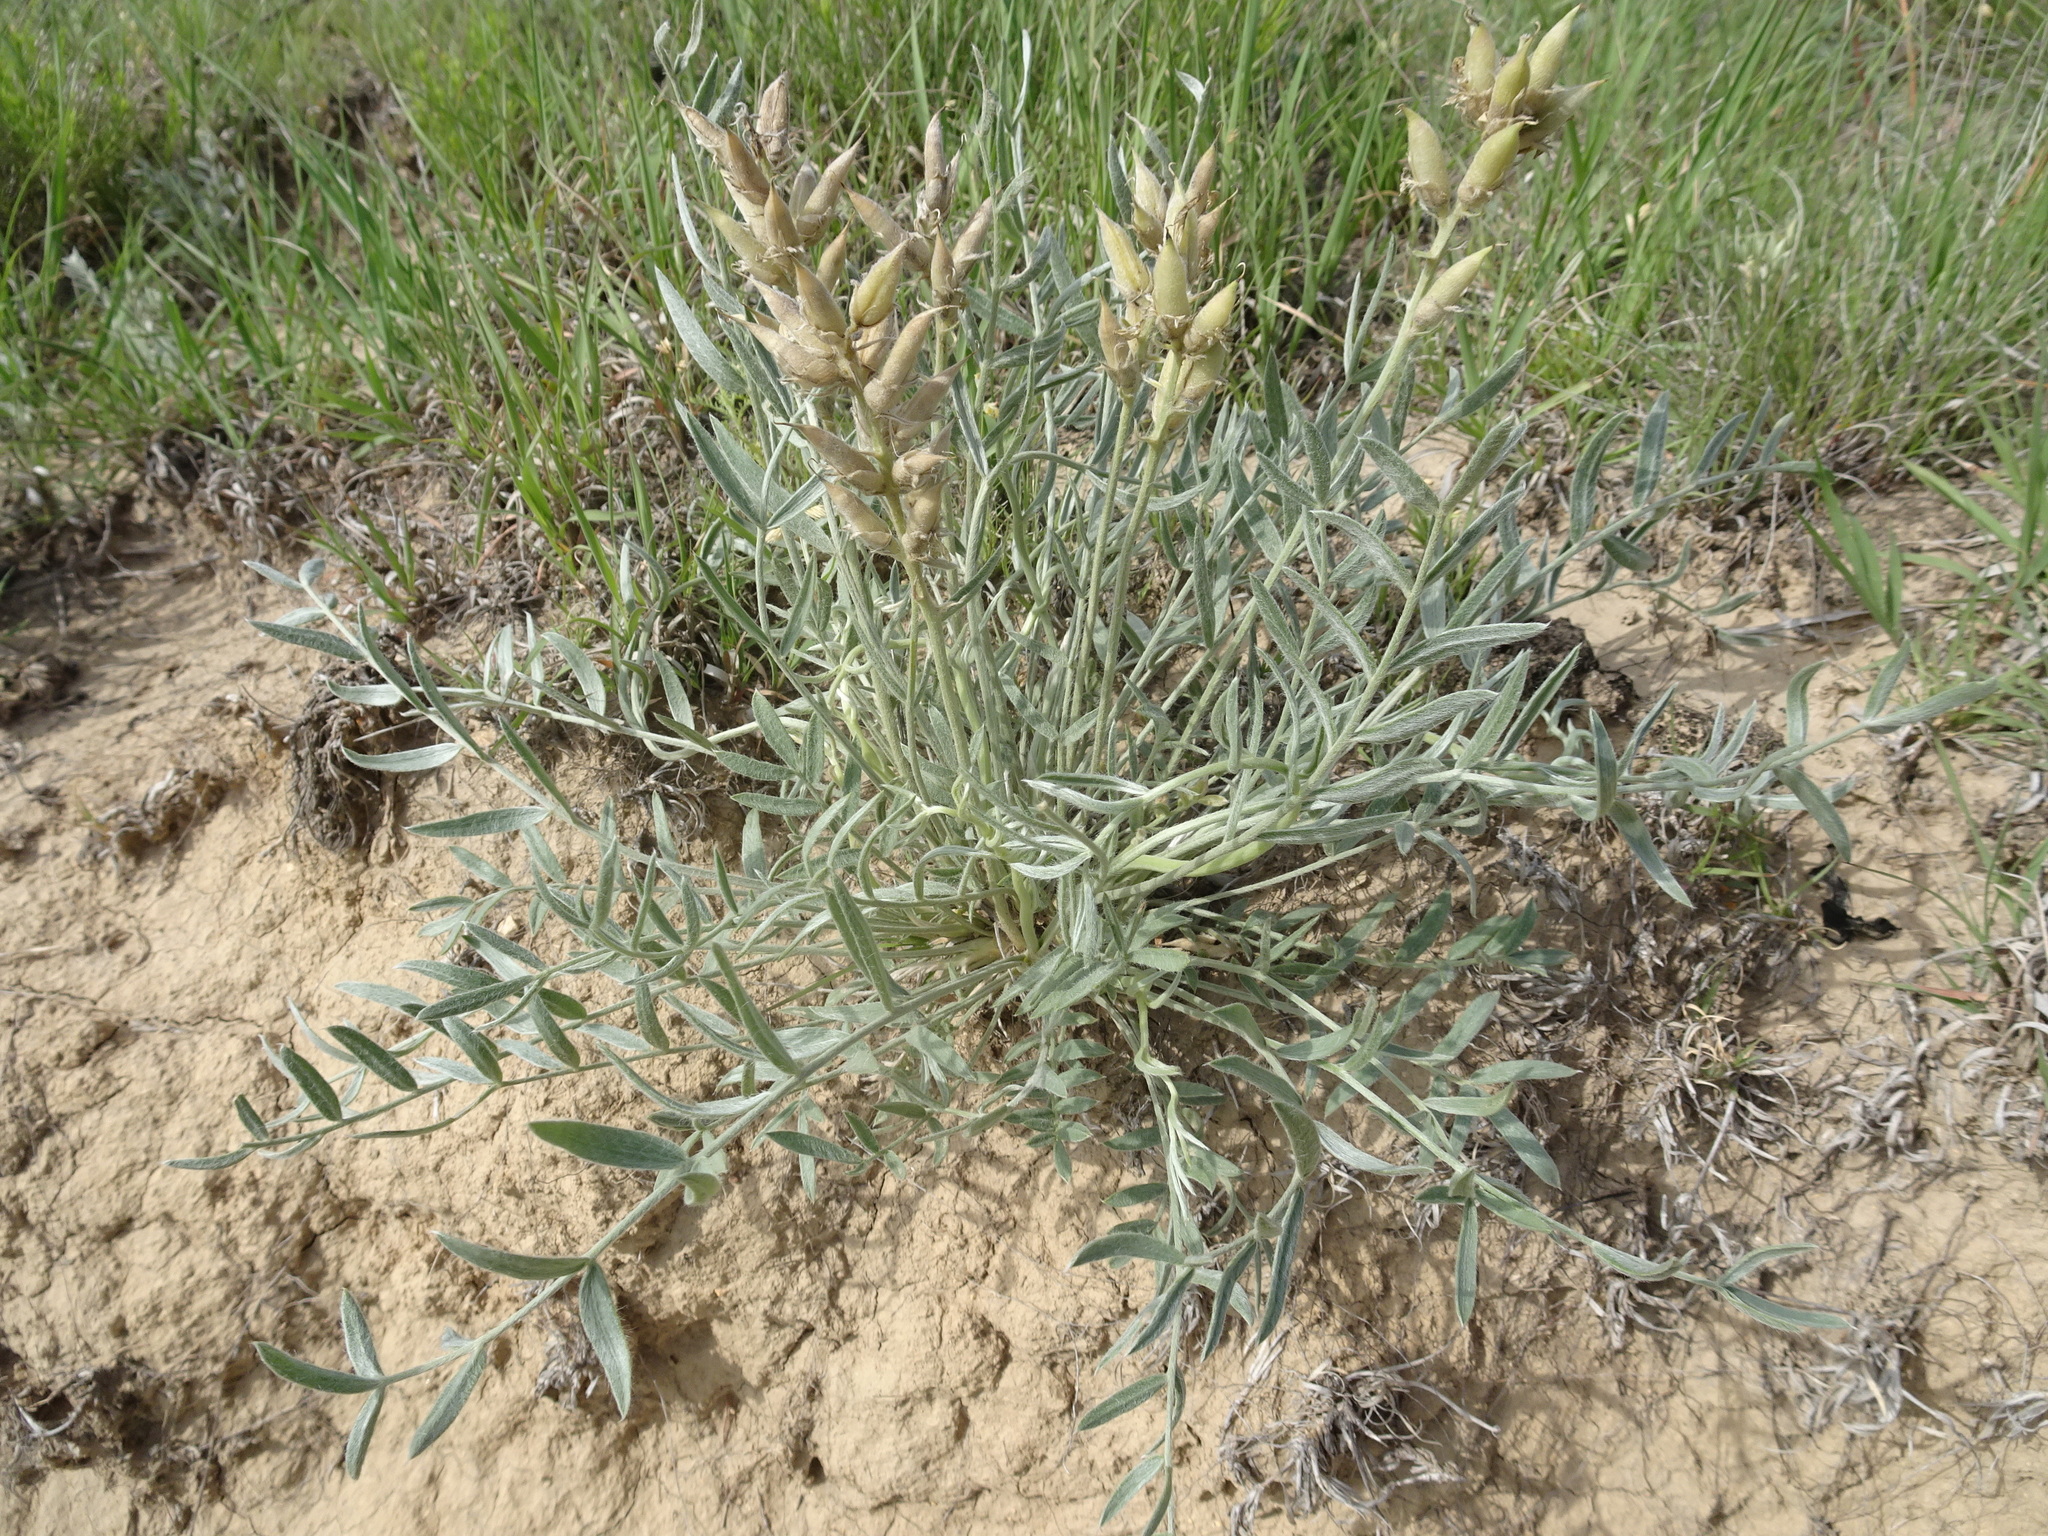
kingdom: Plantae
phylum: Tracheophyta
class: Magnoliopsida
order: Fabales
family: Fabaceae
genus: Oxytropis
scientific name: Oxytropis sericea
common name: Silky locoweed
